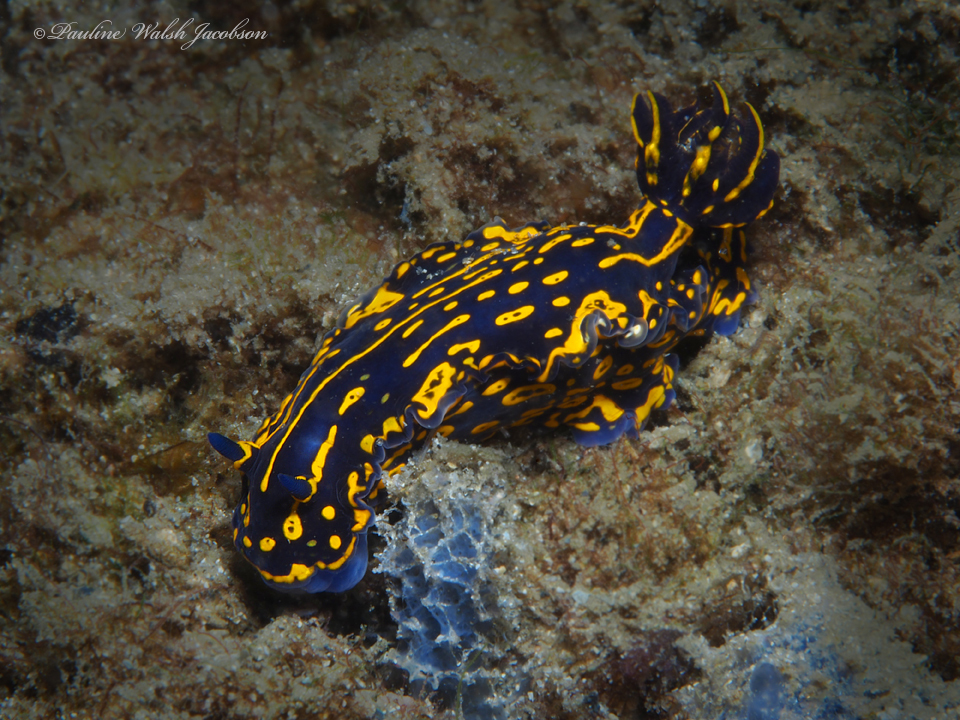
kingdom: Animalia
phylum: Mollusca
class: Gastropoda
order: Nudibranchia
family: Chromodorididae
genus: Felimare
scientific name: Felimare picta
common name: Giant doris
